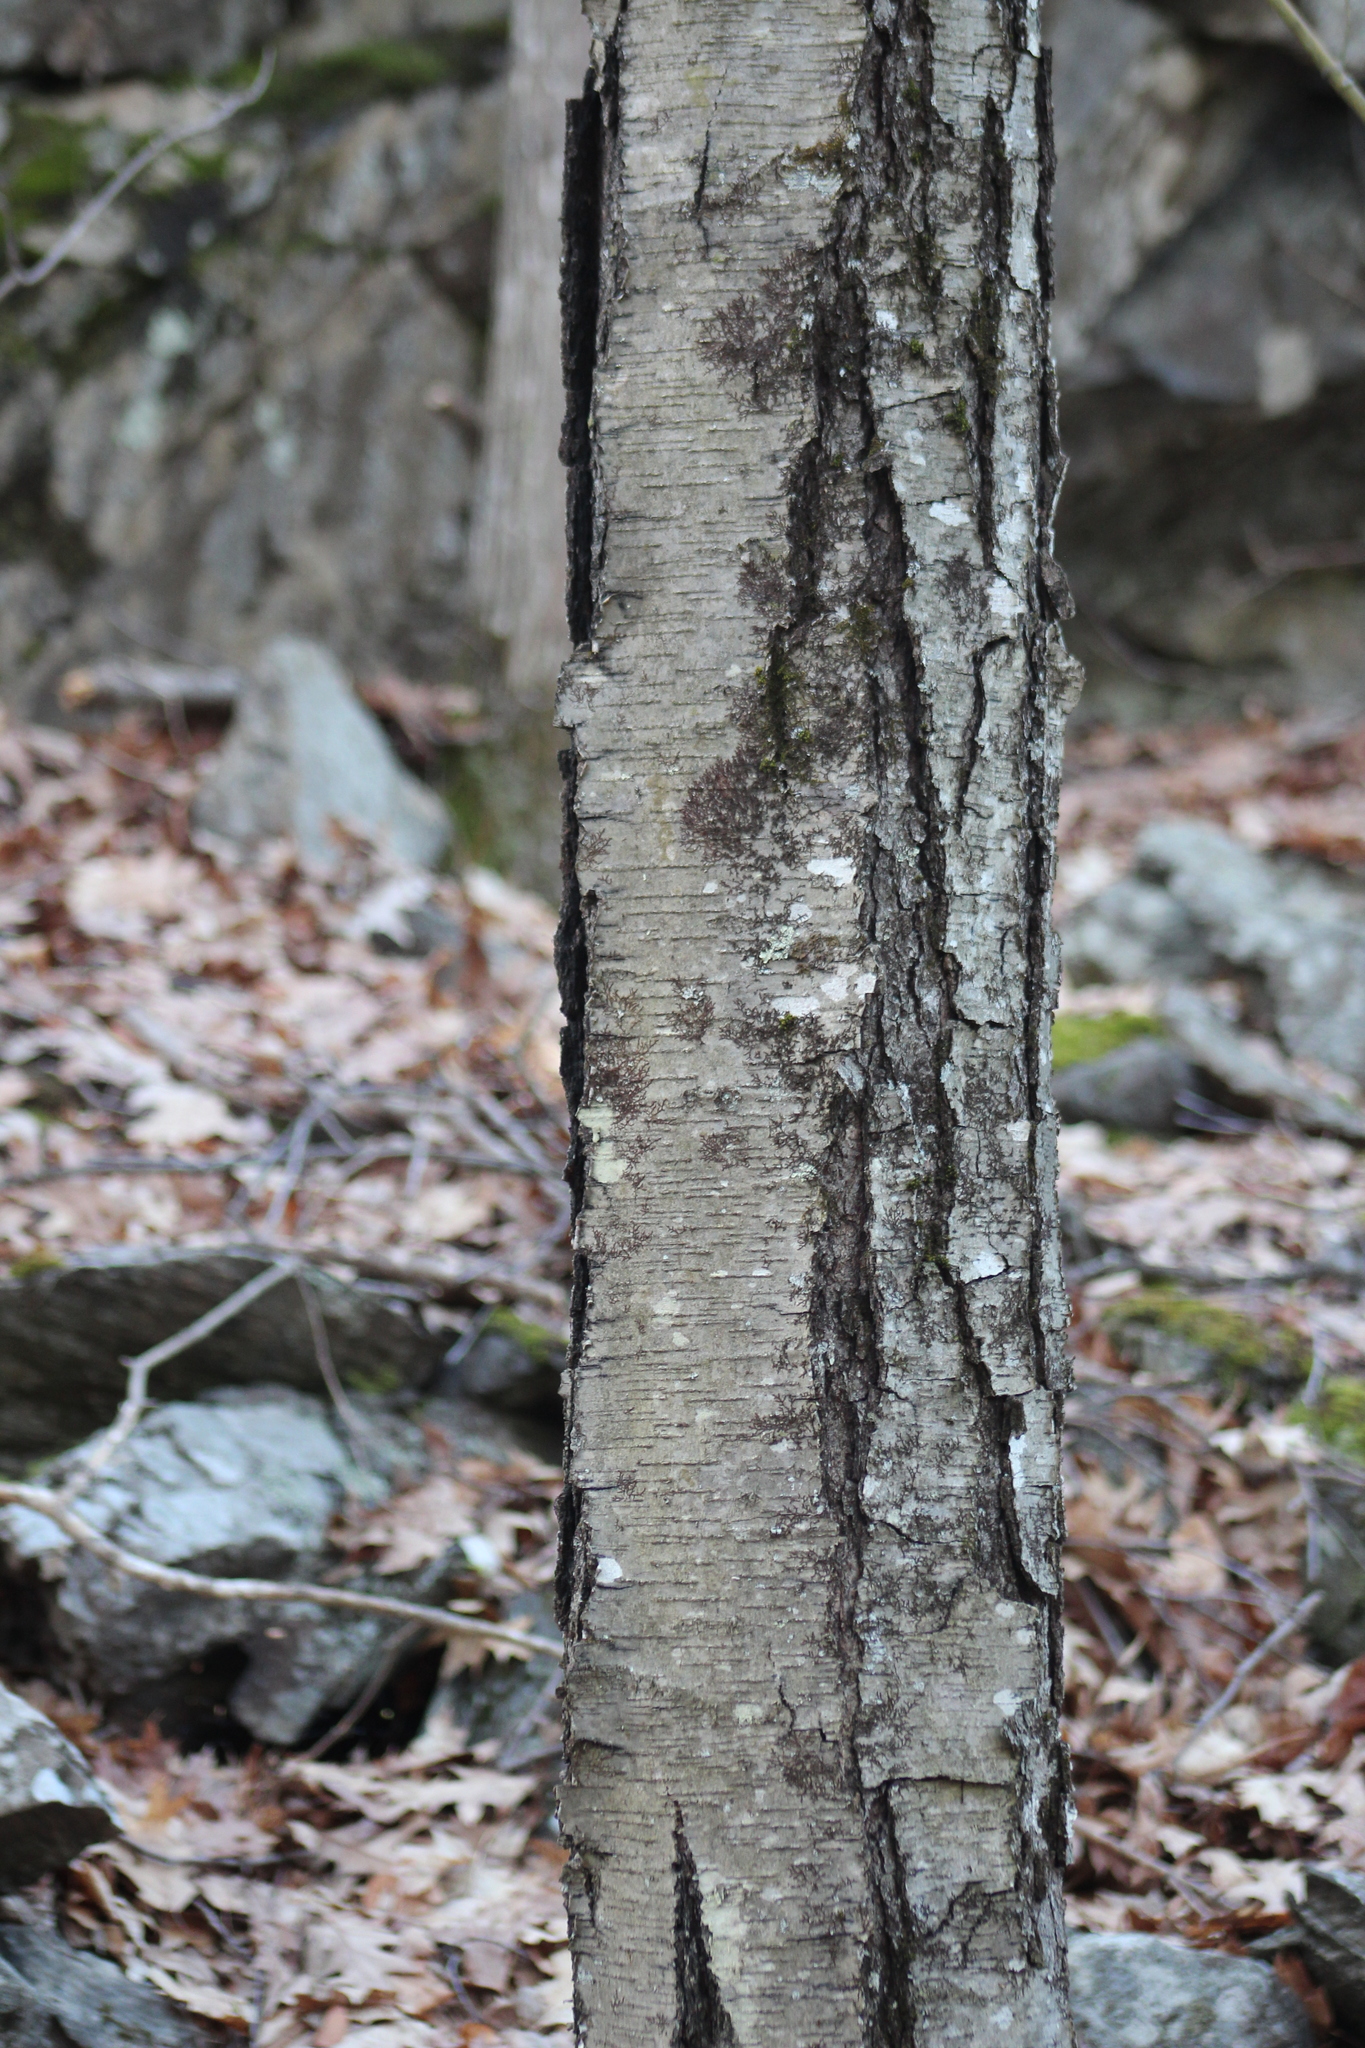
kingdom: Plantae
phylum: Tracheophyta
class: Magnoliopsida
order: Fagales
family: Betulaceae
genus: Betula
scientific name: Betula lenta
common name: Black birch
